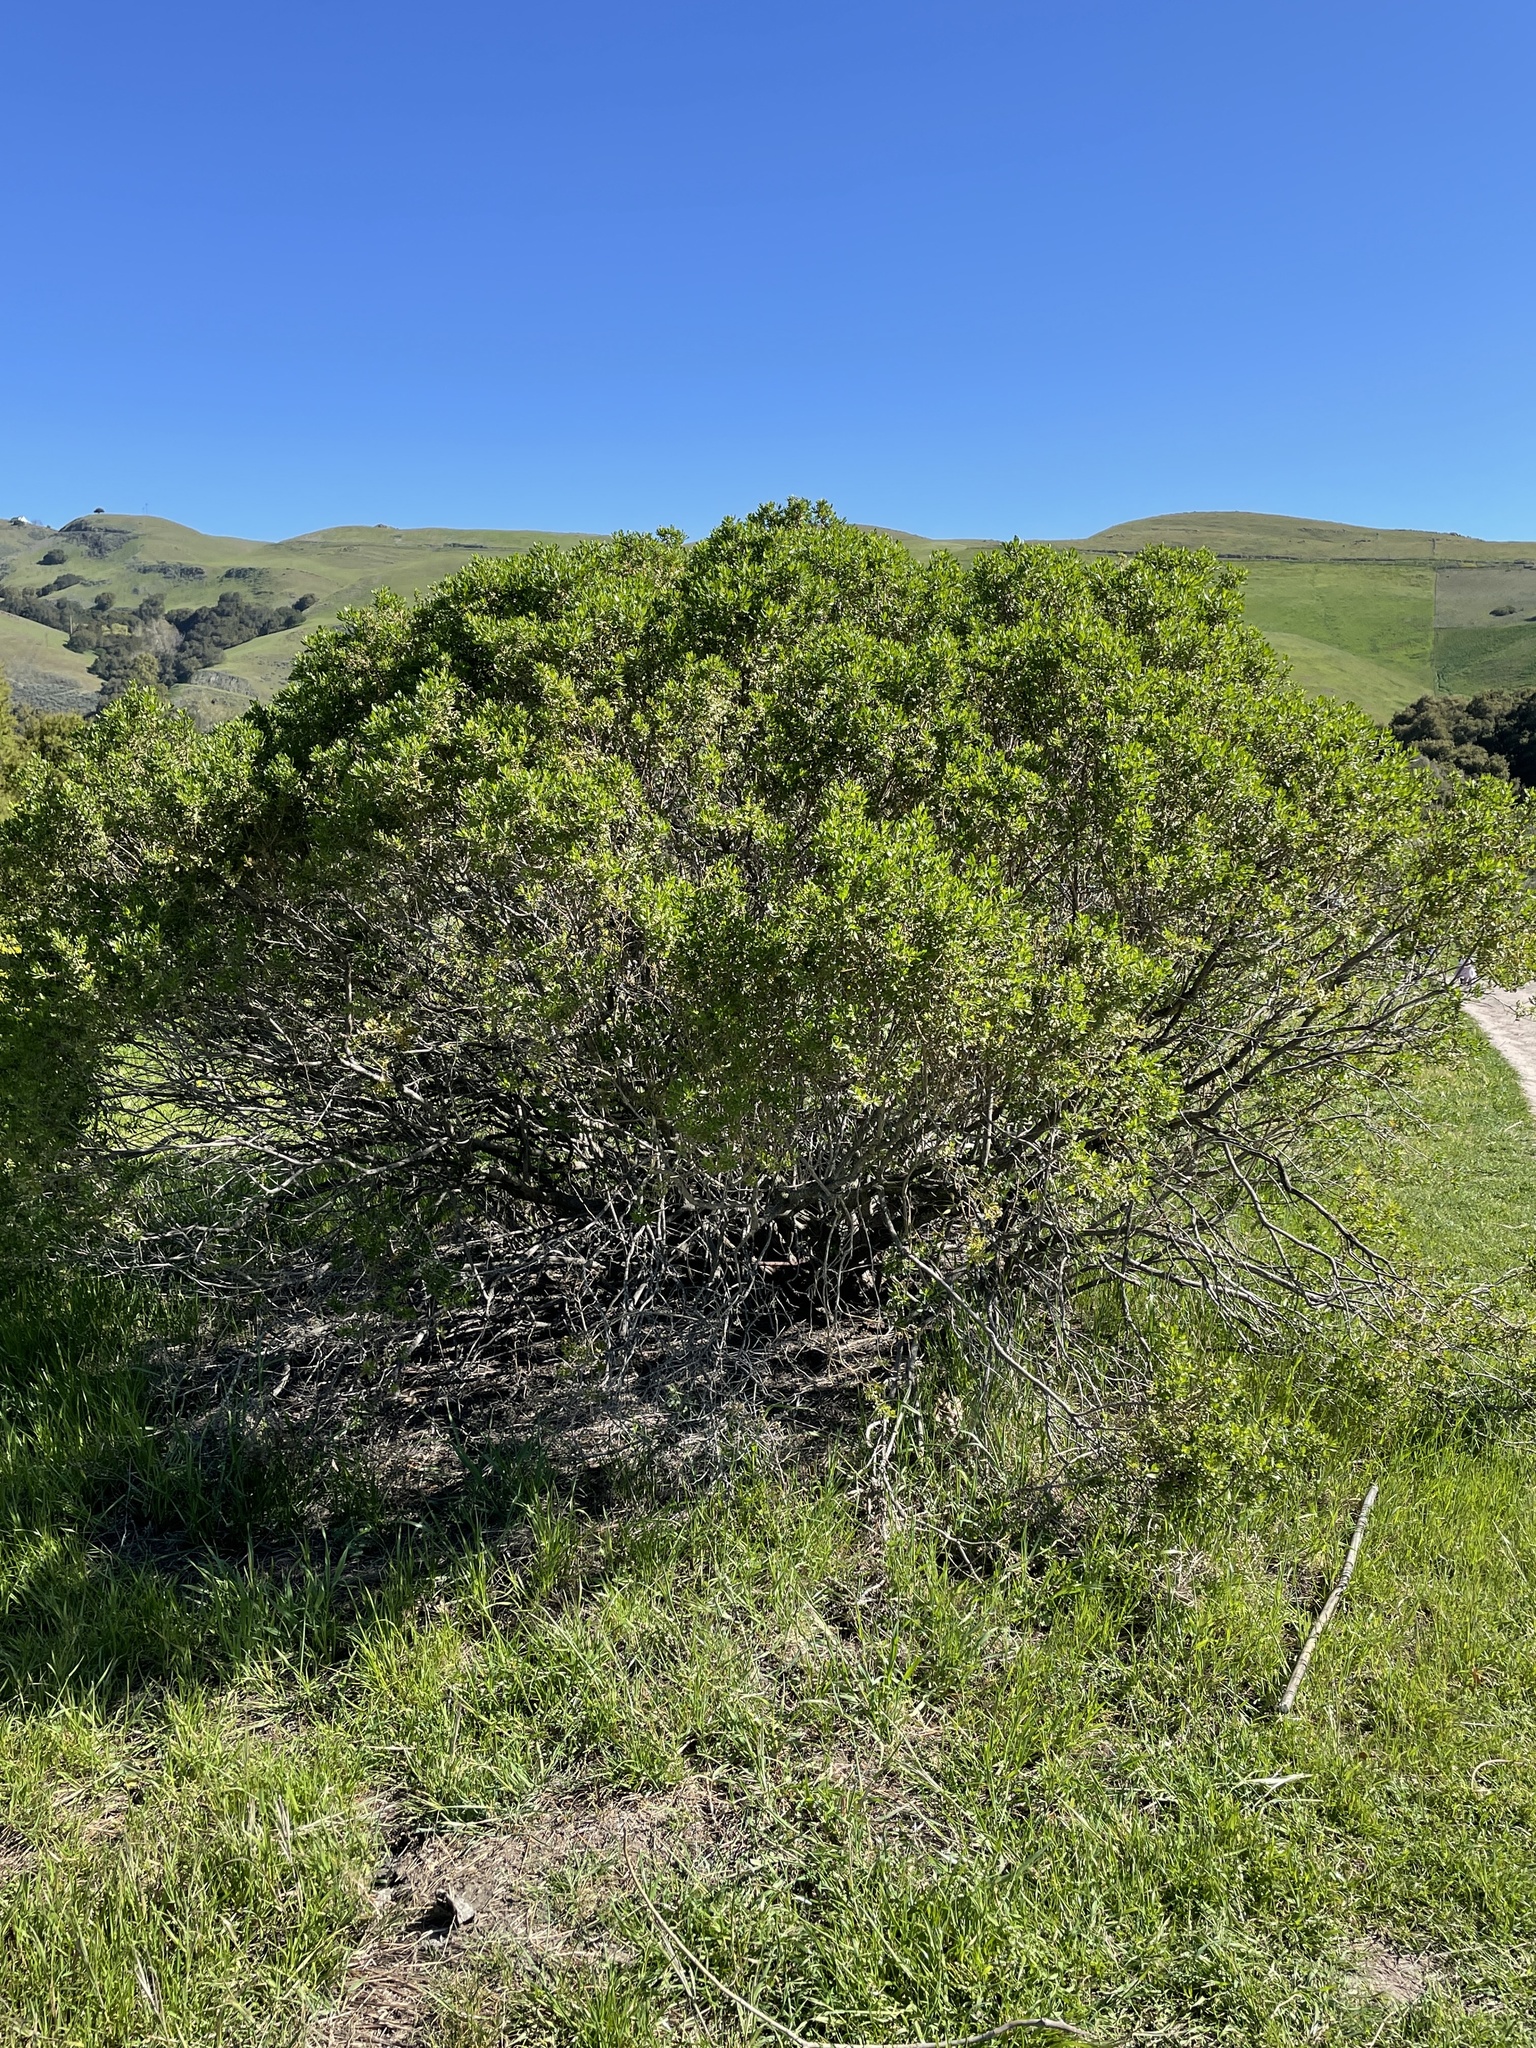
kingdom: Plantae
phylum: Tracheophyta
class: Magnoliopsida
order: Asterales
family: Asteraceae
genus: Baccharis
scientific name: Baccharis pilularis
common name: Coyotebrush
